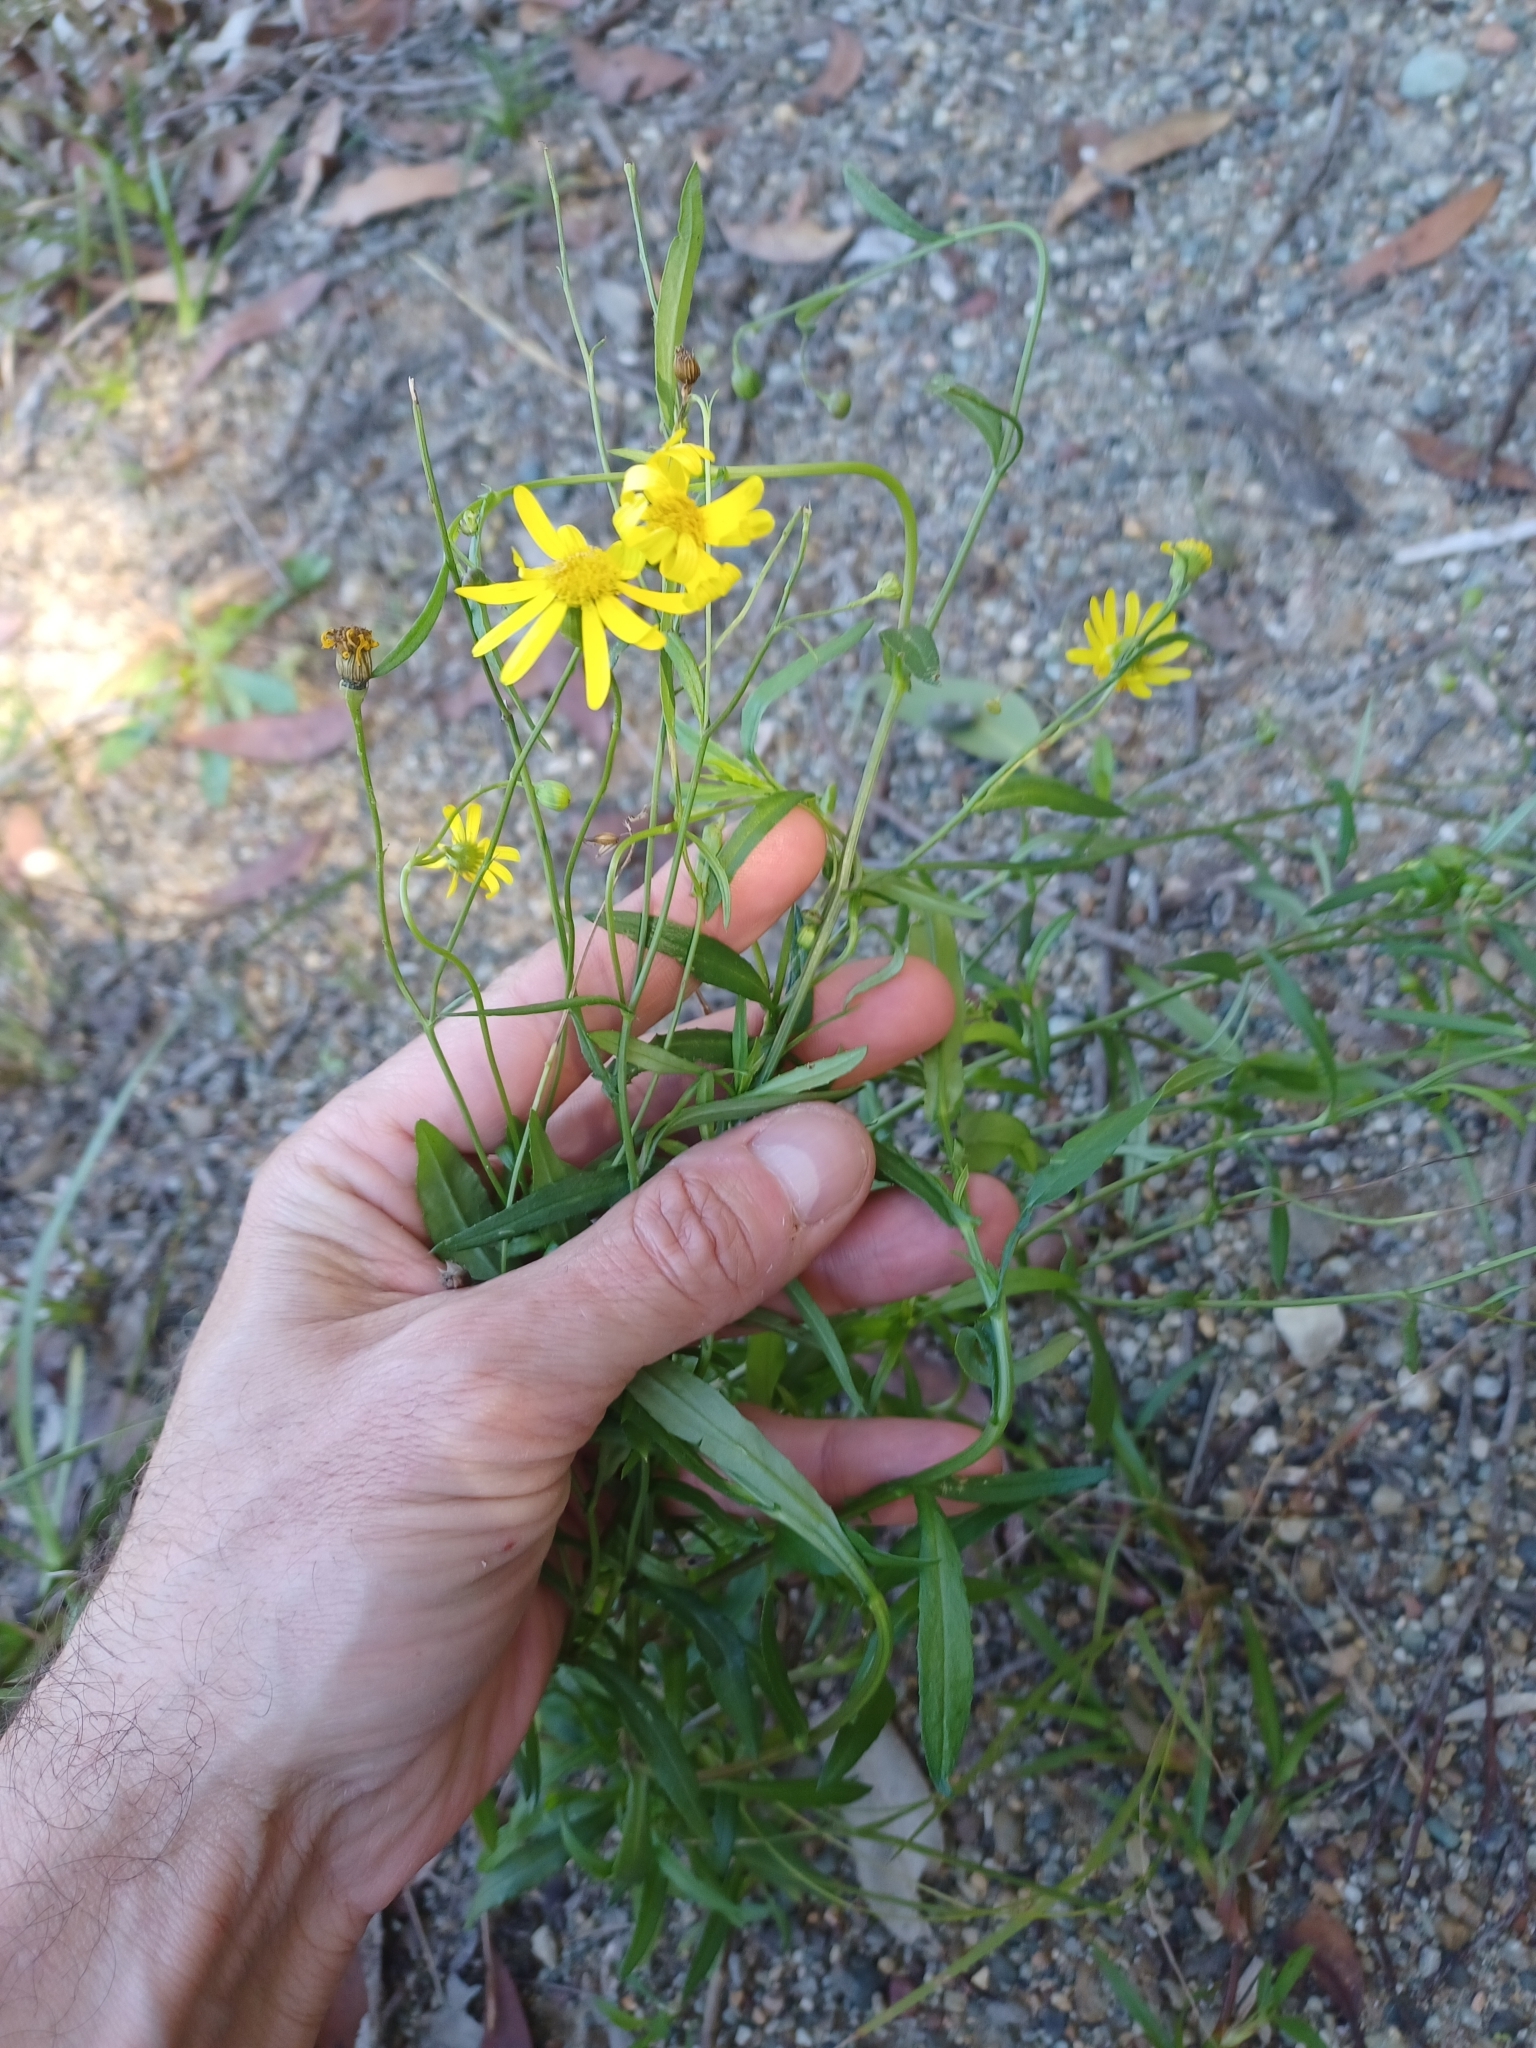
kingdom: Plantae
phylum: Tracheophyta
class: Magnoliopsida
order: Asterales
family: Asteraceae
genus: Senecio
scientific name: Senecio madagascariensis
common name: Madagascar ragwort
